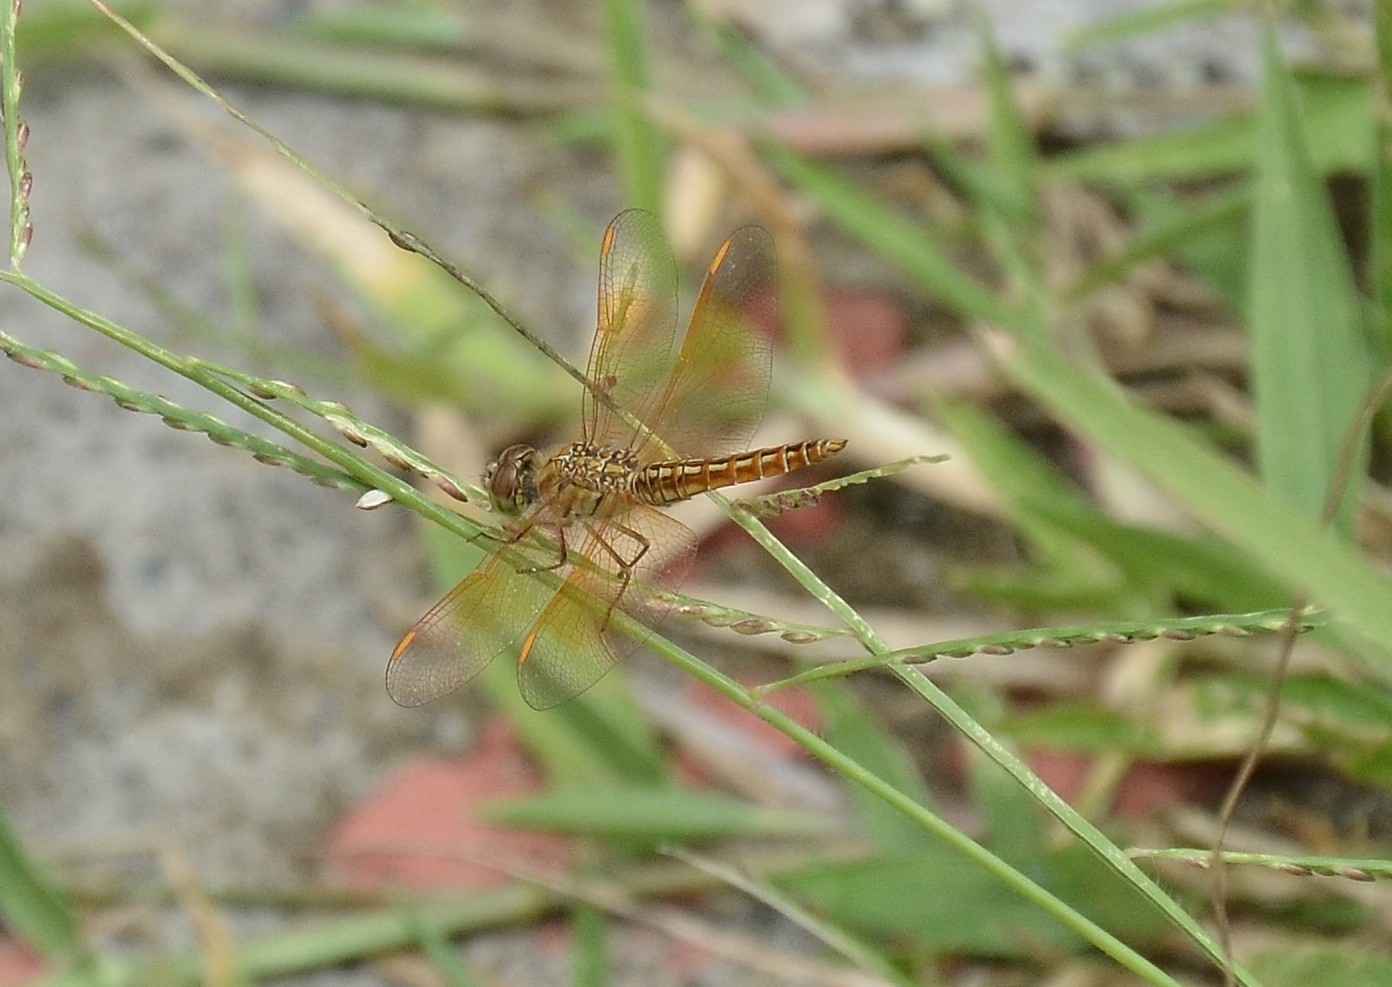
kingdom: Animalia
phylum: Arthropoda
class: Insecta
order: Odonata
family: Libellulidae
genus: Brachythemis
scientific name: Brachythemis contaminata
